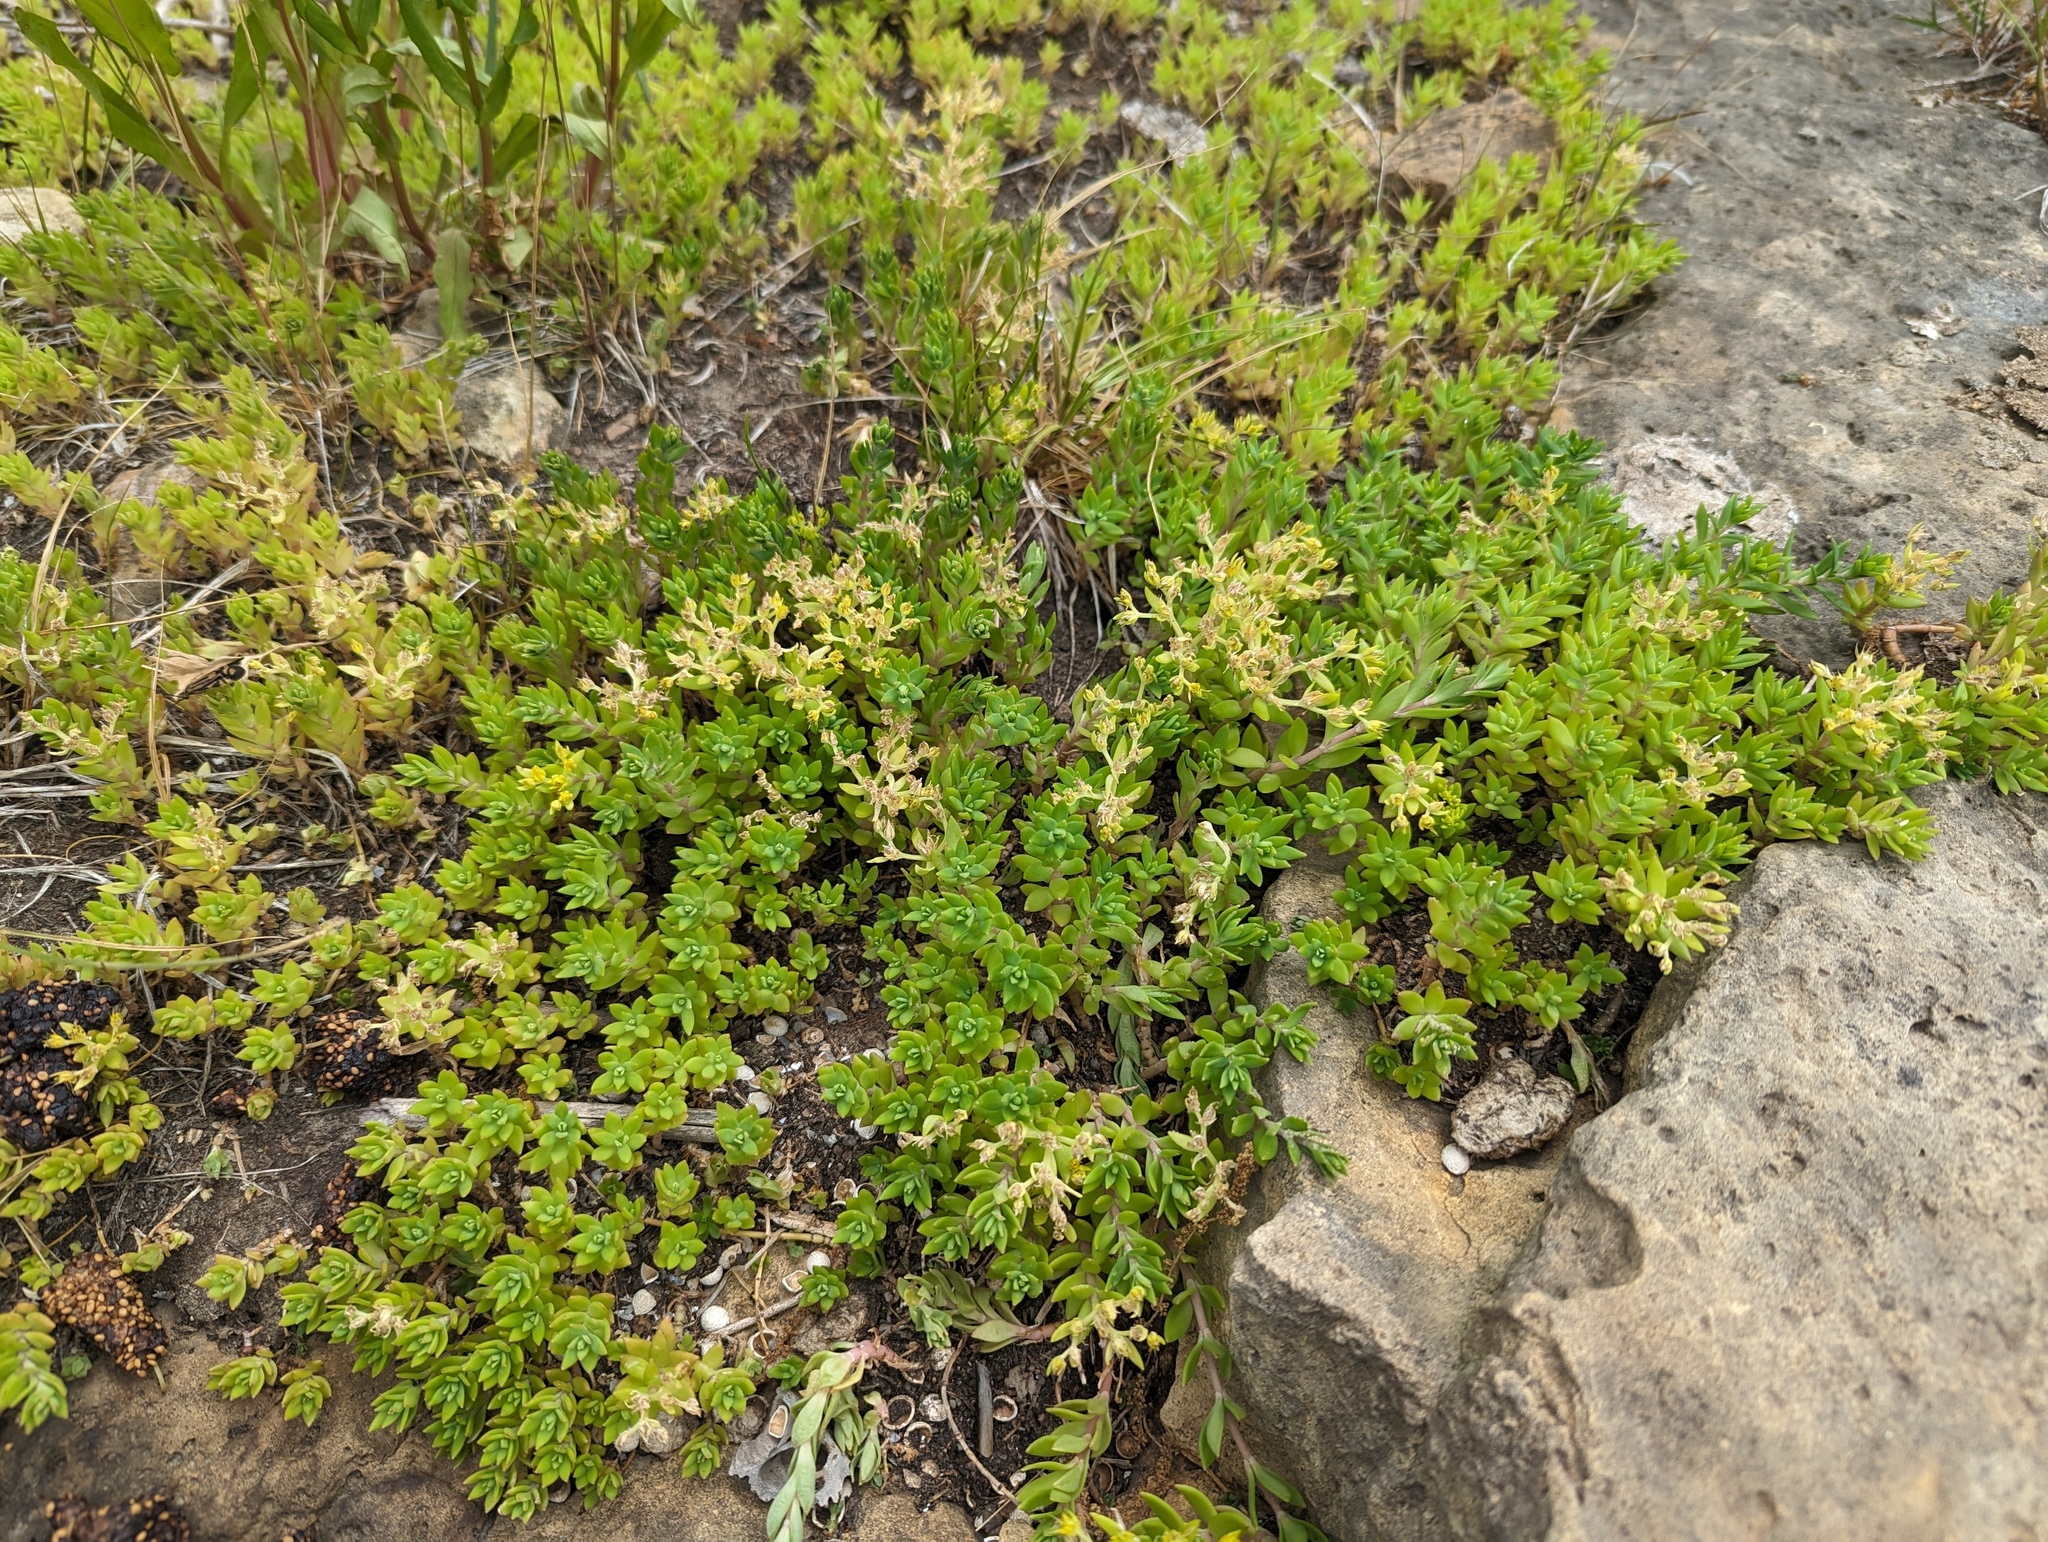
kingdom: Plantae
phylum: Tracheophyta
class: Magnoliopsida
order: Saxifragales
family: Crassulaceae
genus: Sedum
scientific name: Sedum sarmentosum
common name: Stringy stonecrop
